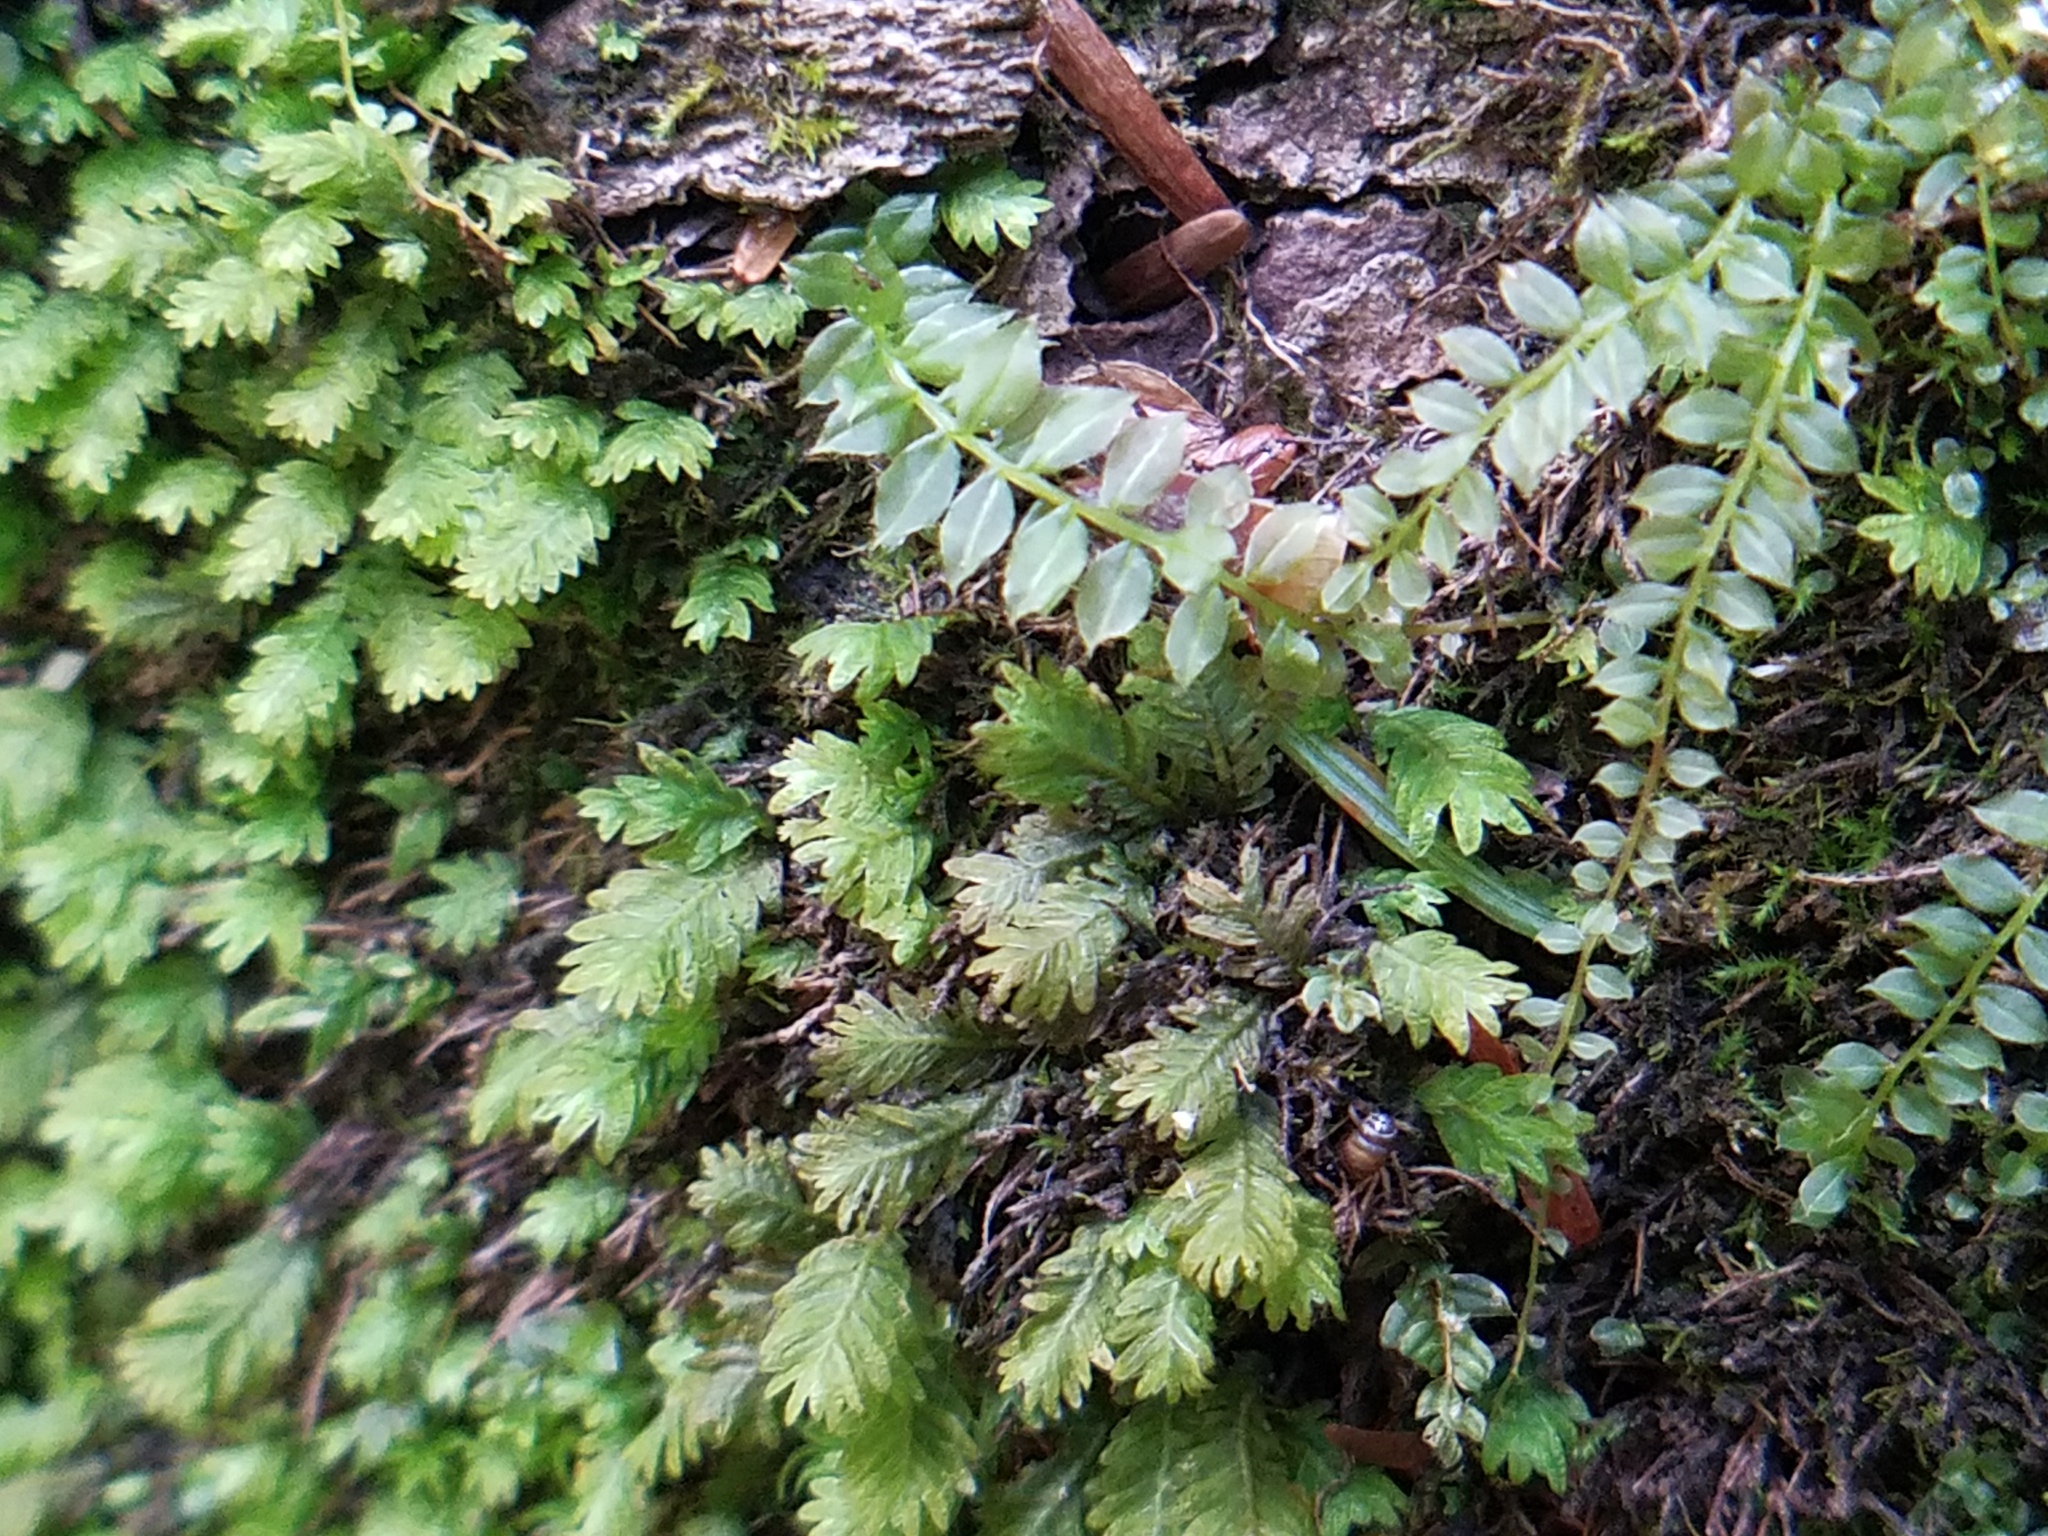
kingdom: Plantae
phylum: Bryophyta
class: Bryopsida
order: Bryales
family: Mniaceae
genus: Plagiomnium
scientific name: Plagiomnium cuspidatum
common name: Woodsy leafy moss
